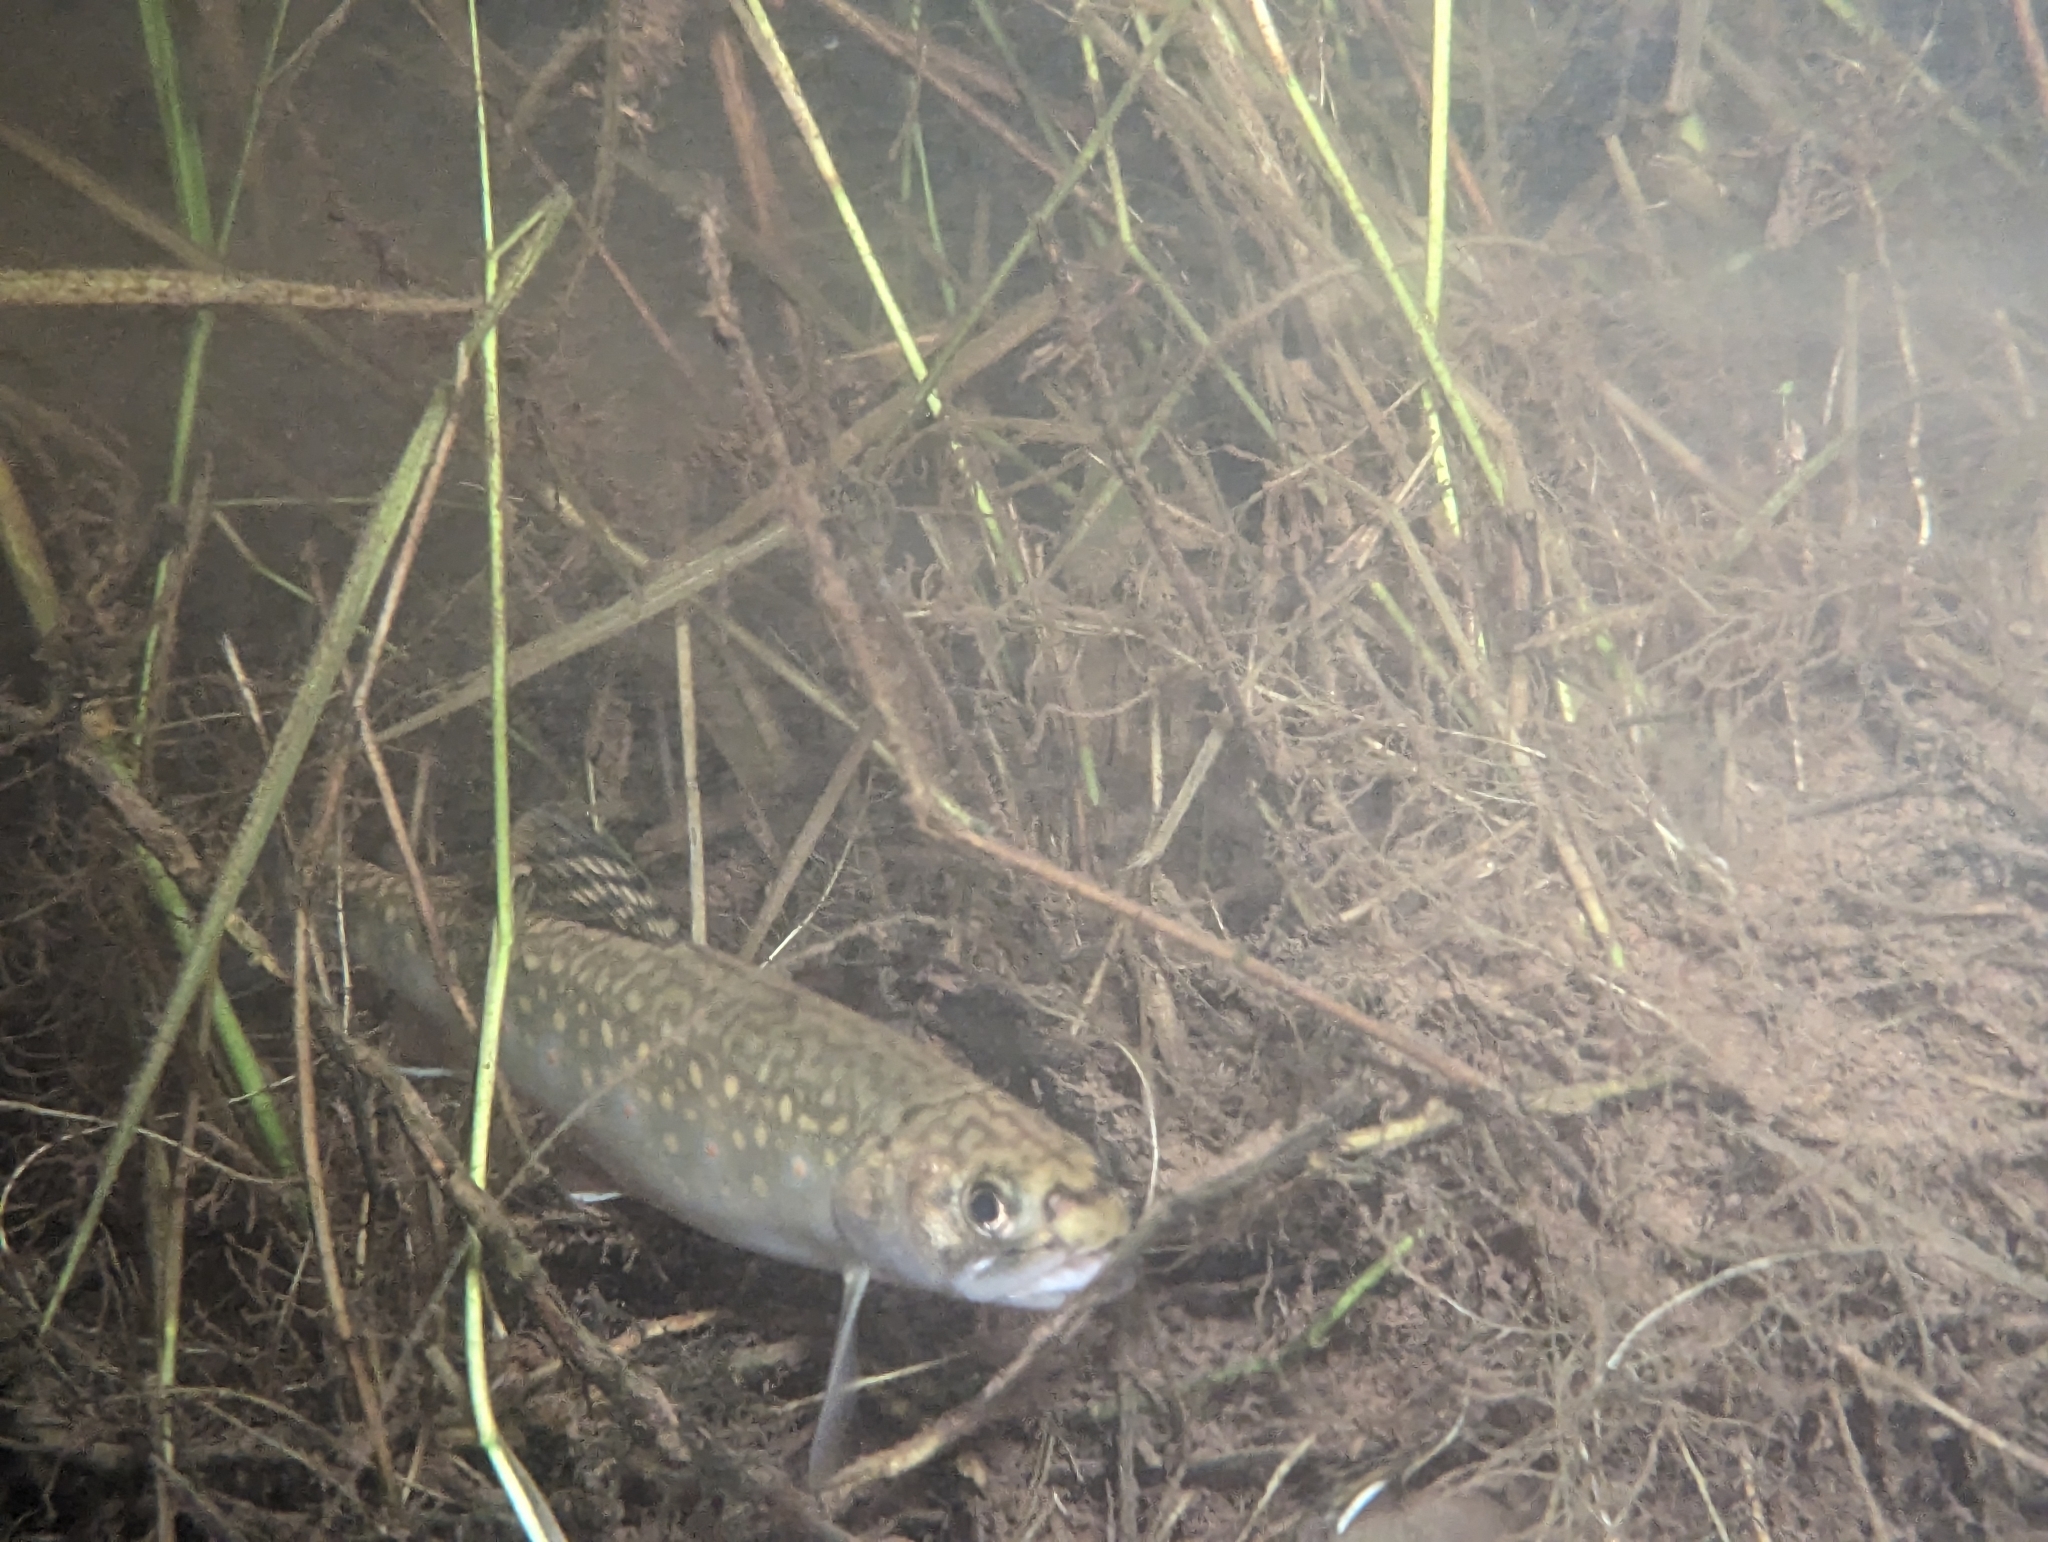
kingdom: Animalia
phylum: Chordata
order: Salmoniformes
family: Salmonidae
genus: Salvelinus
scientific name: Salvelinus fontinalis
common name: Brook trout
